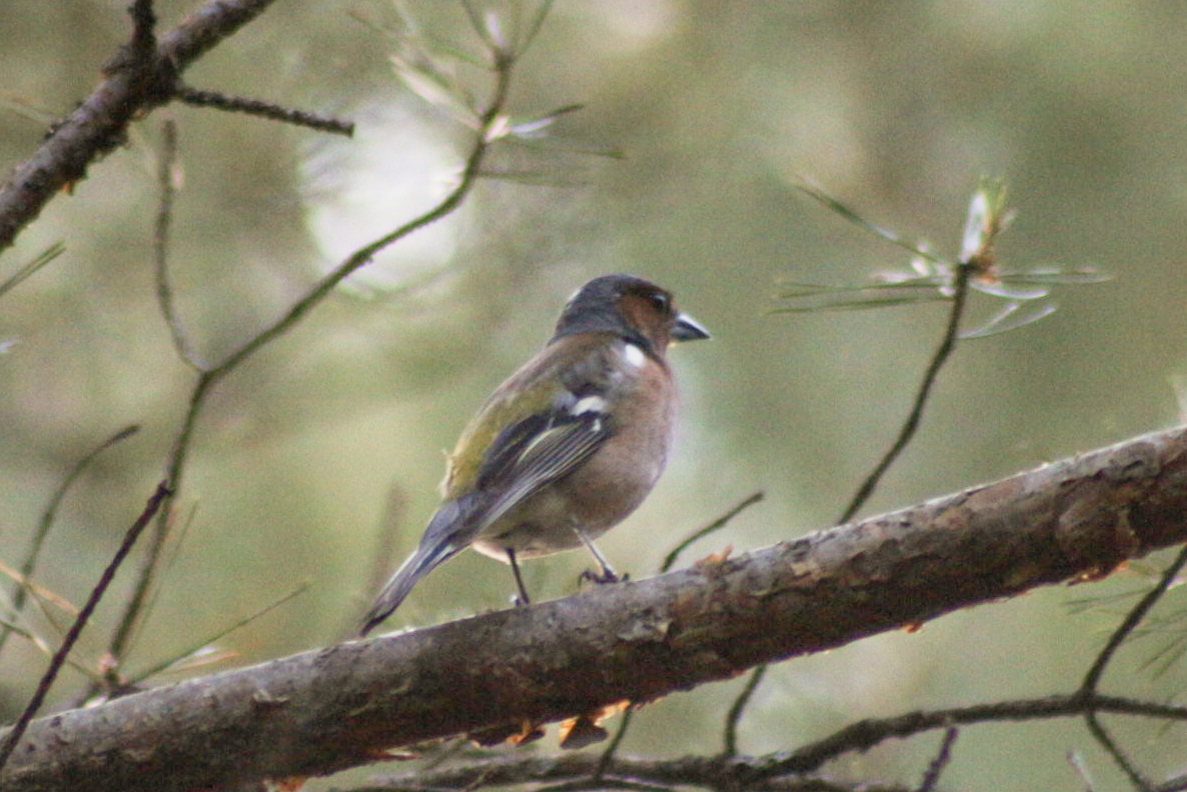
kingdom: Animalia
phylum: Chordata
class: Aves
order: Passeriformes
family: Fringillidae
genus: Fringilla
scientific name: Fringilla coelebs
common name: Common chaffinch
